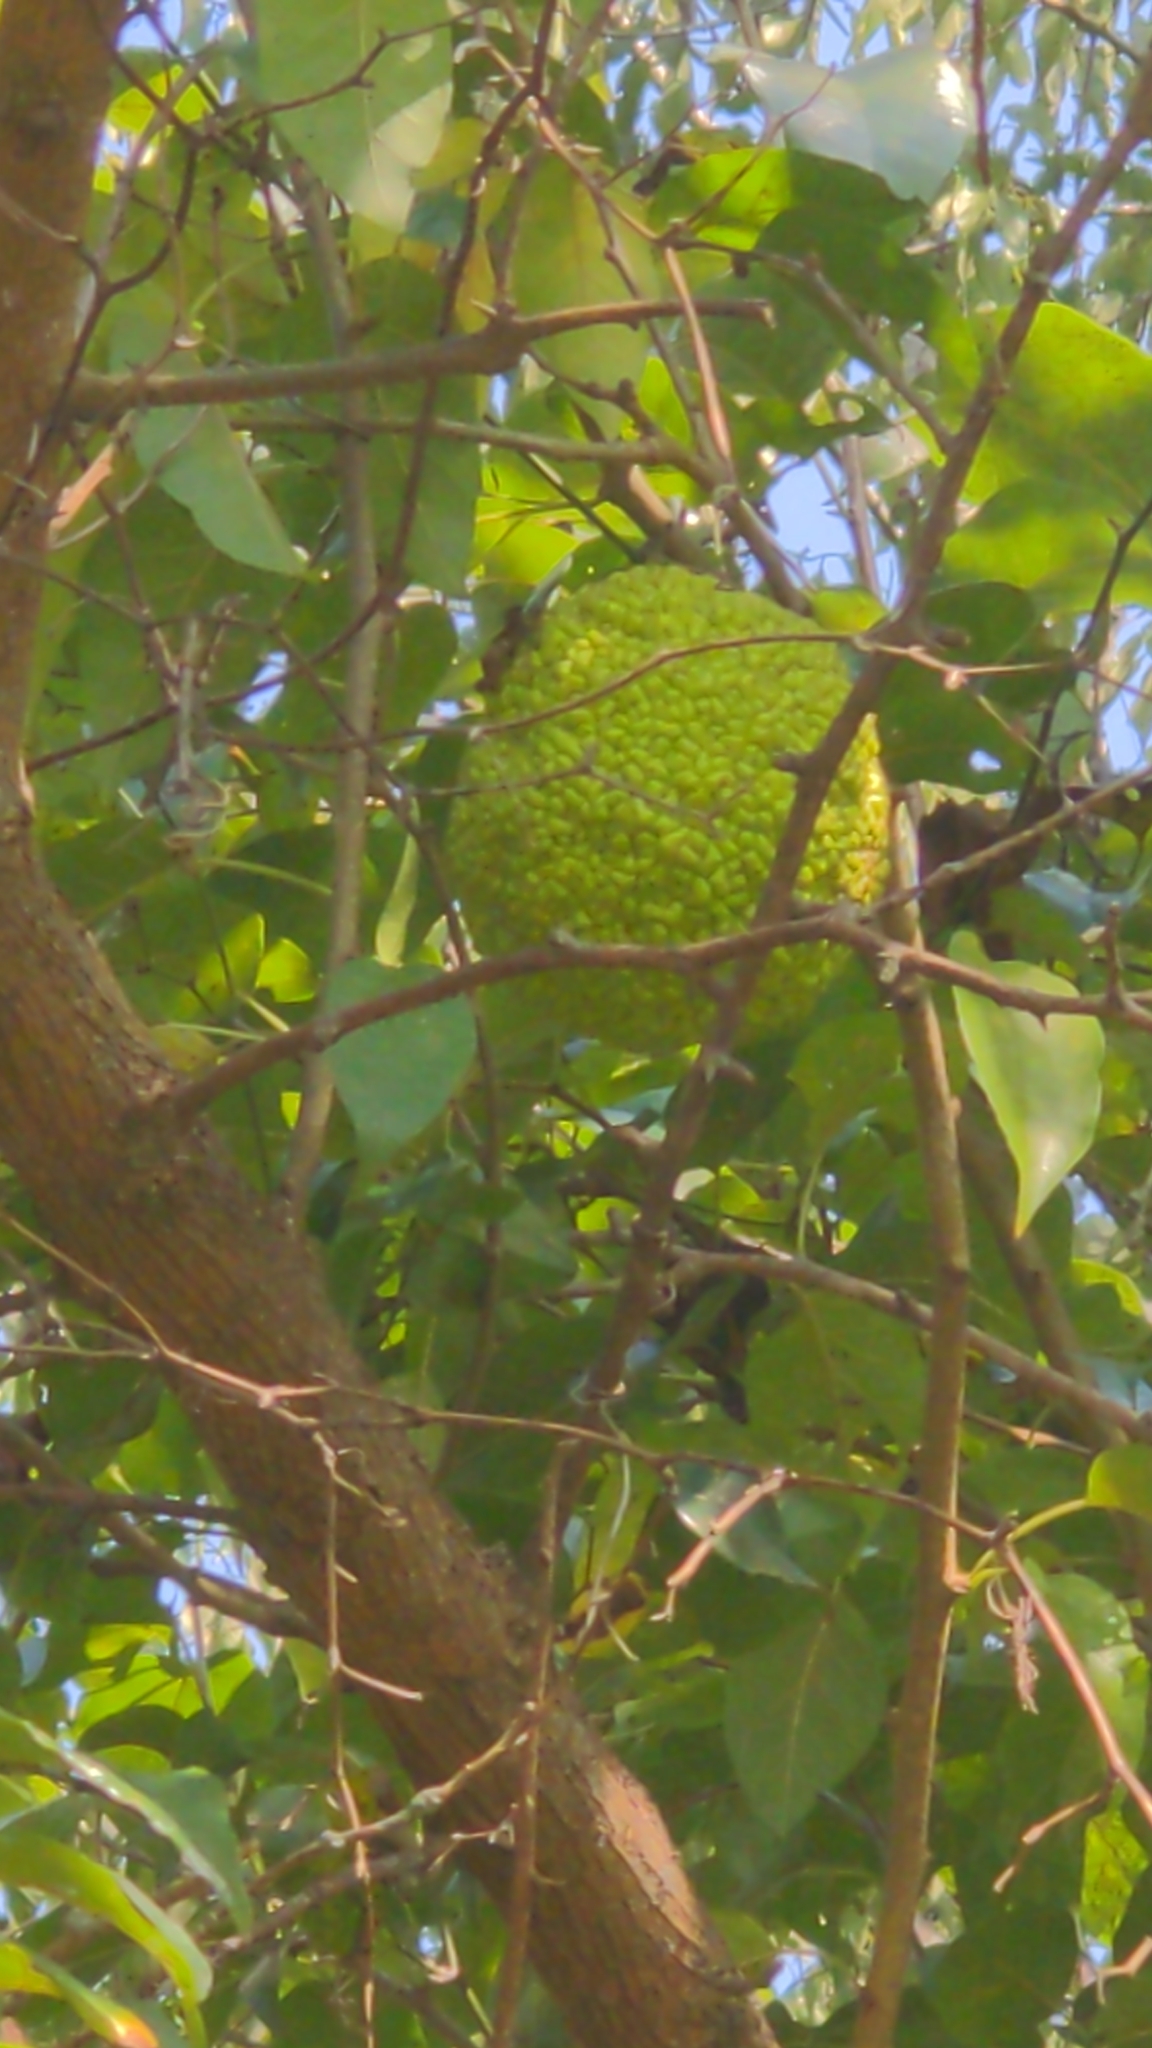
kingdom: Plantae
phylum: Tracheophyta
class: Magnoliopsida
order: Rosales
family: Moraceae
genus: Maclura
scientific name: Maclura pomifera
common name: Osage-orange
